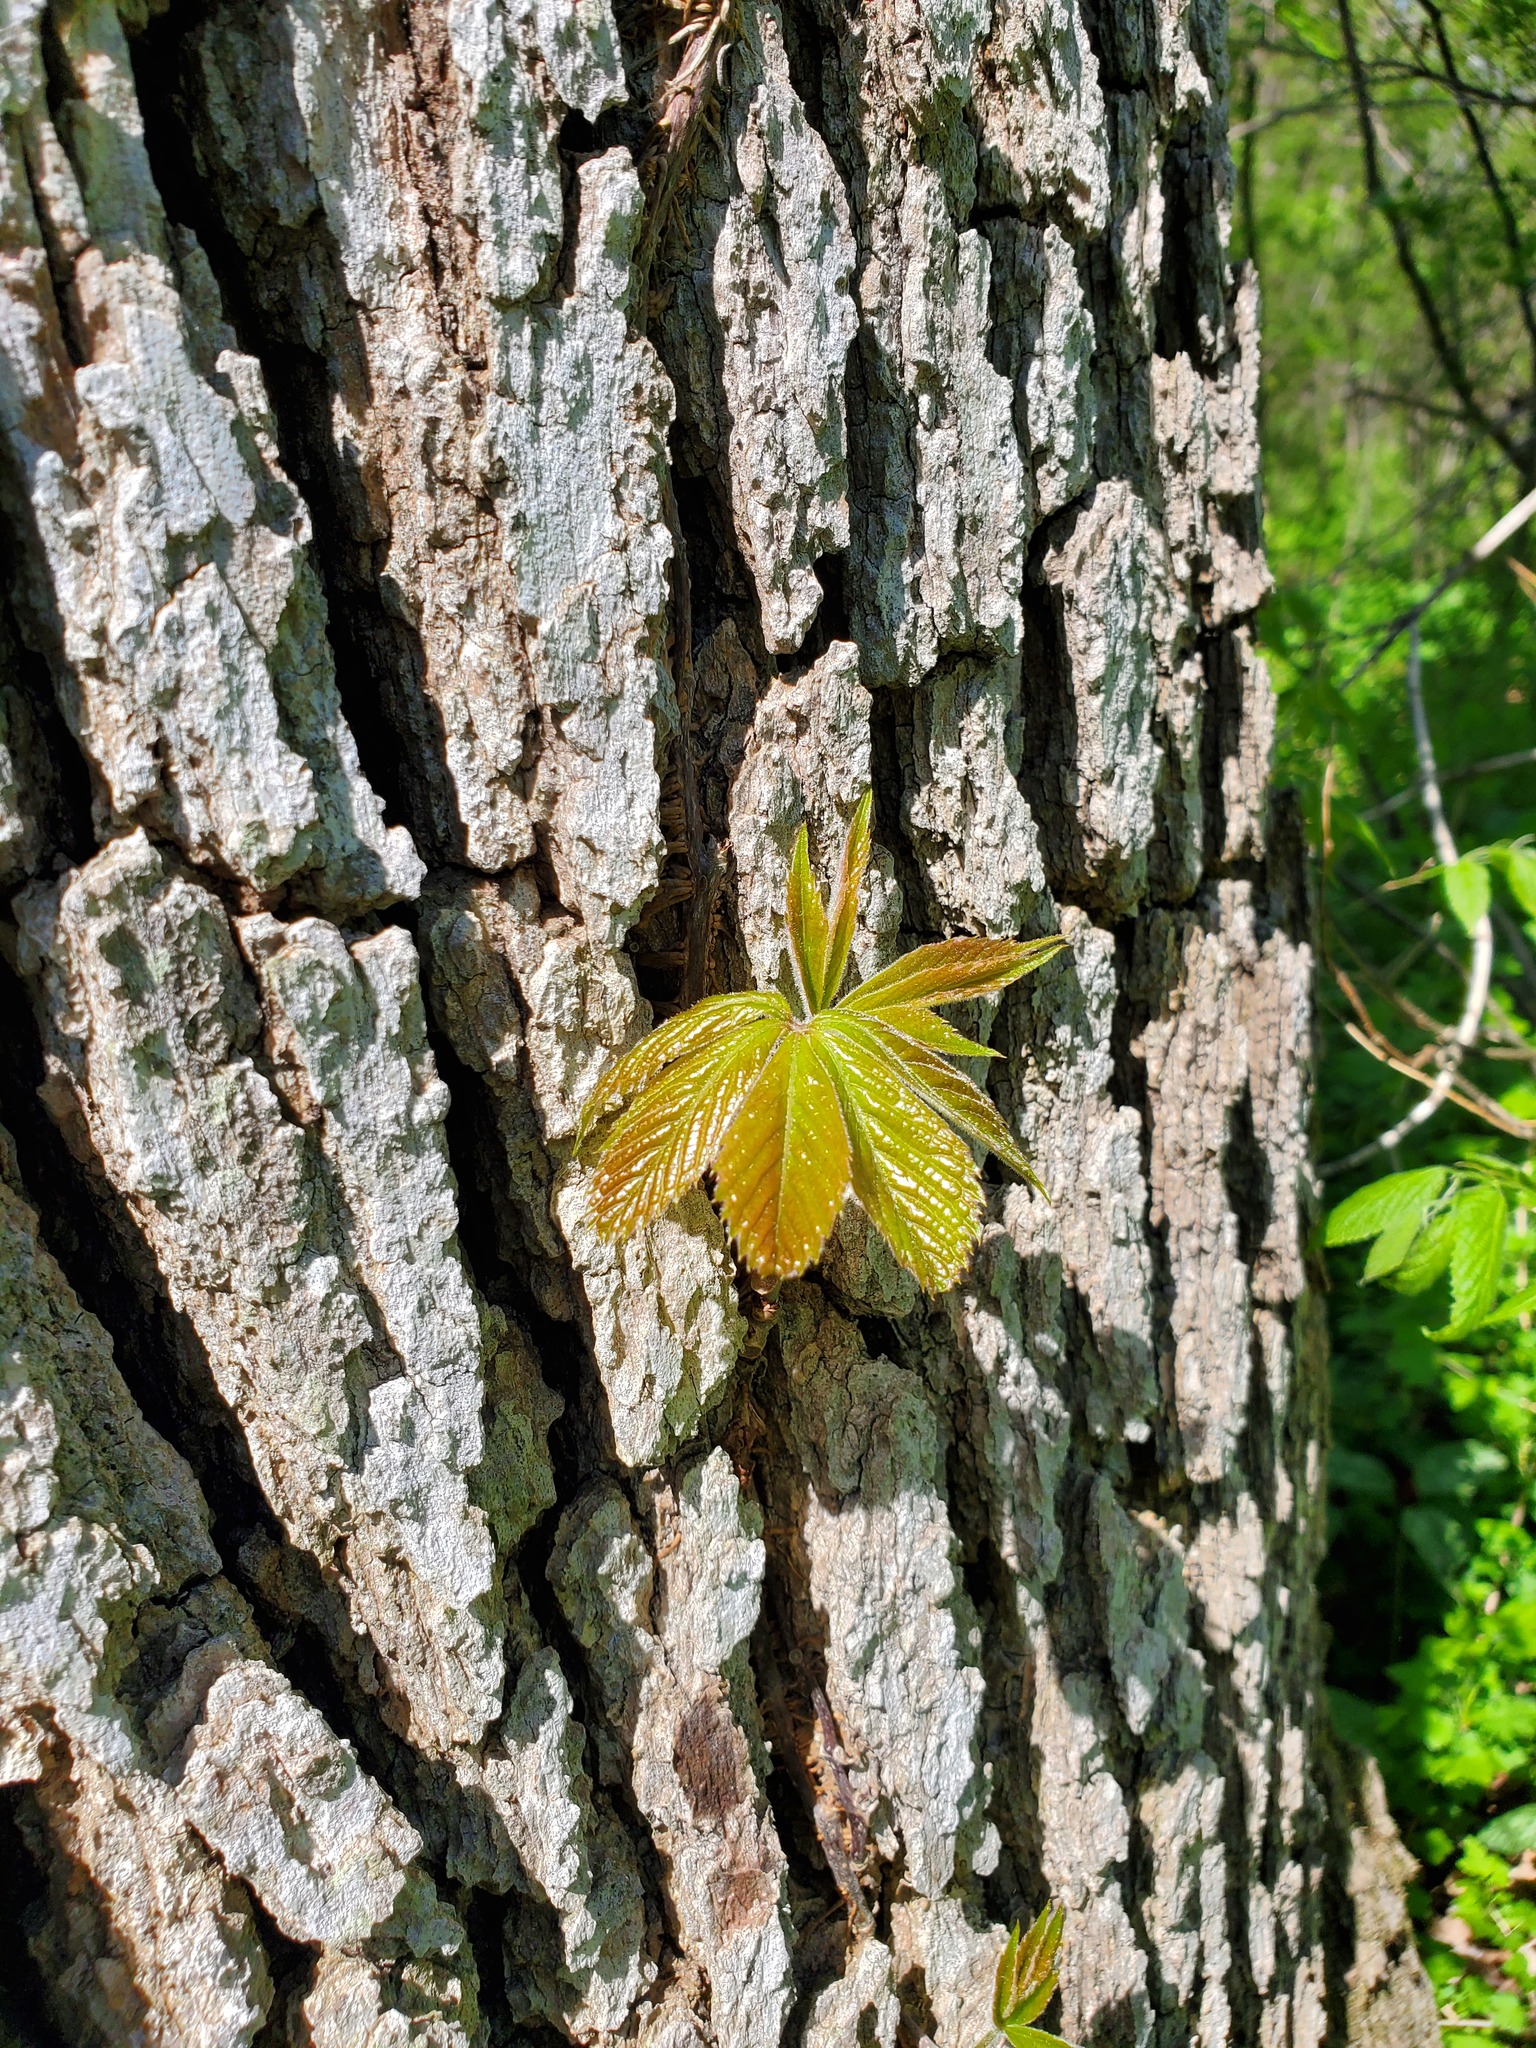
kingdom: Plantae
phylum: Tracheophyta
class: Magnoliopsida
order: Vitales
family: Vitaceae
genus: Parthenocissus
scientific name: Parthenocissus quinquefolia
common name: Virginia-creeper
